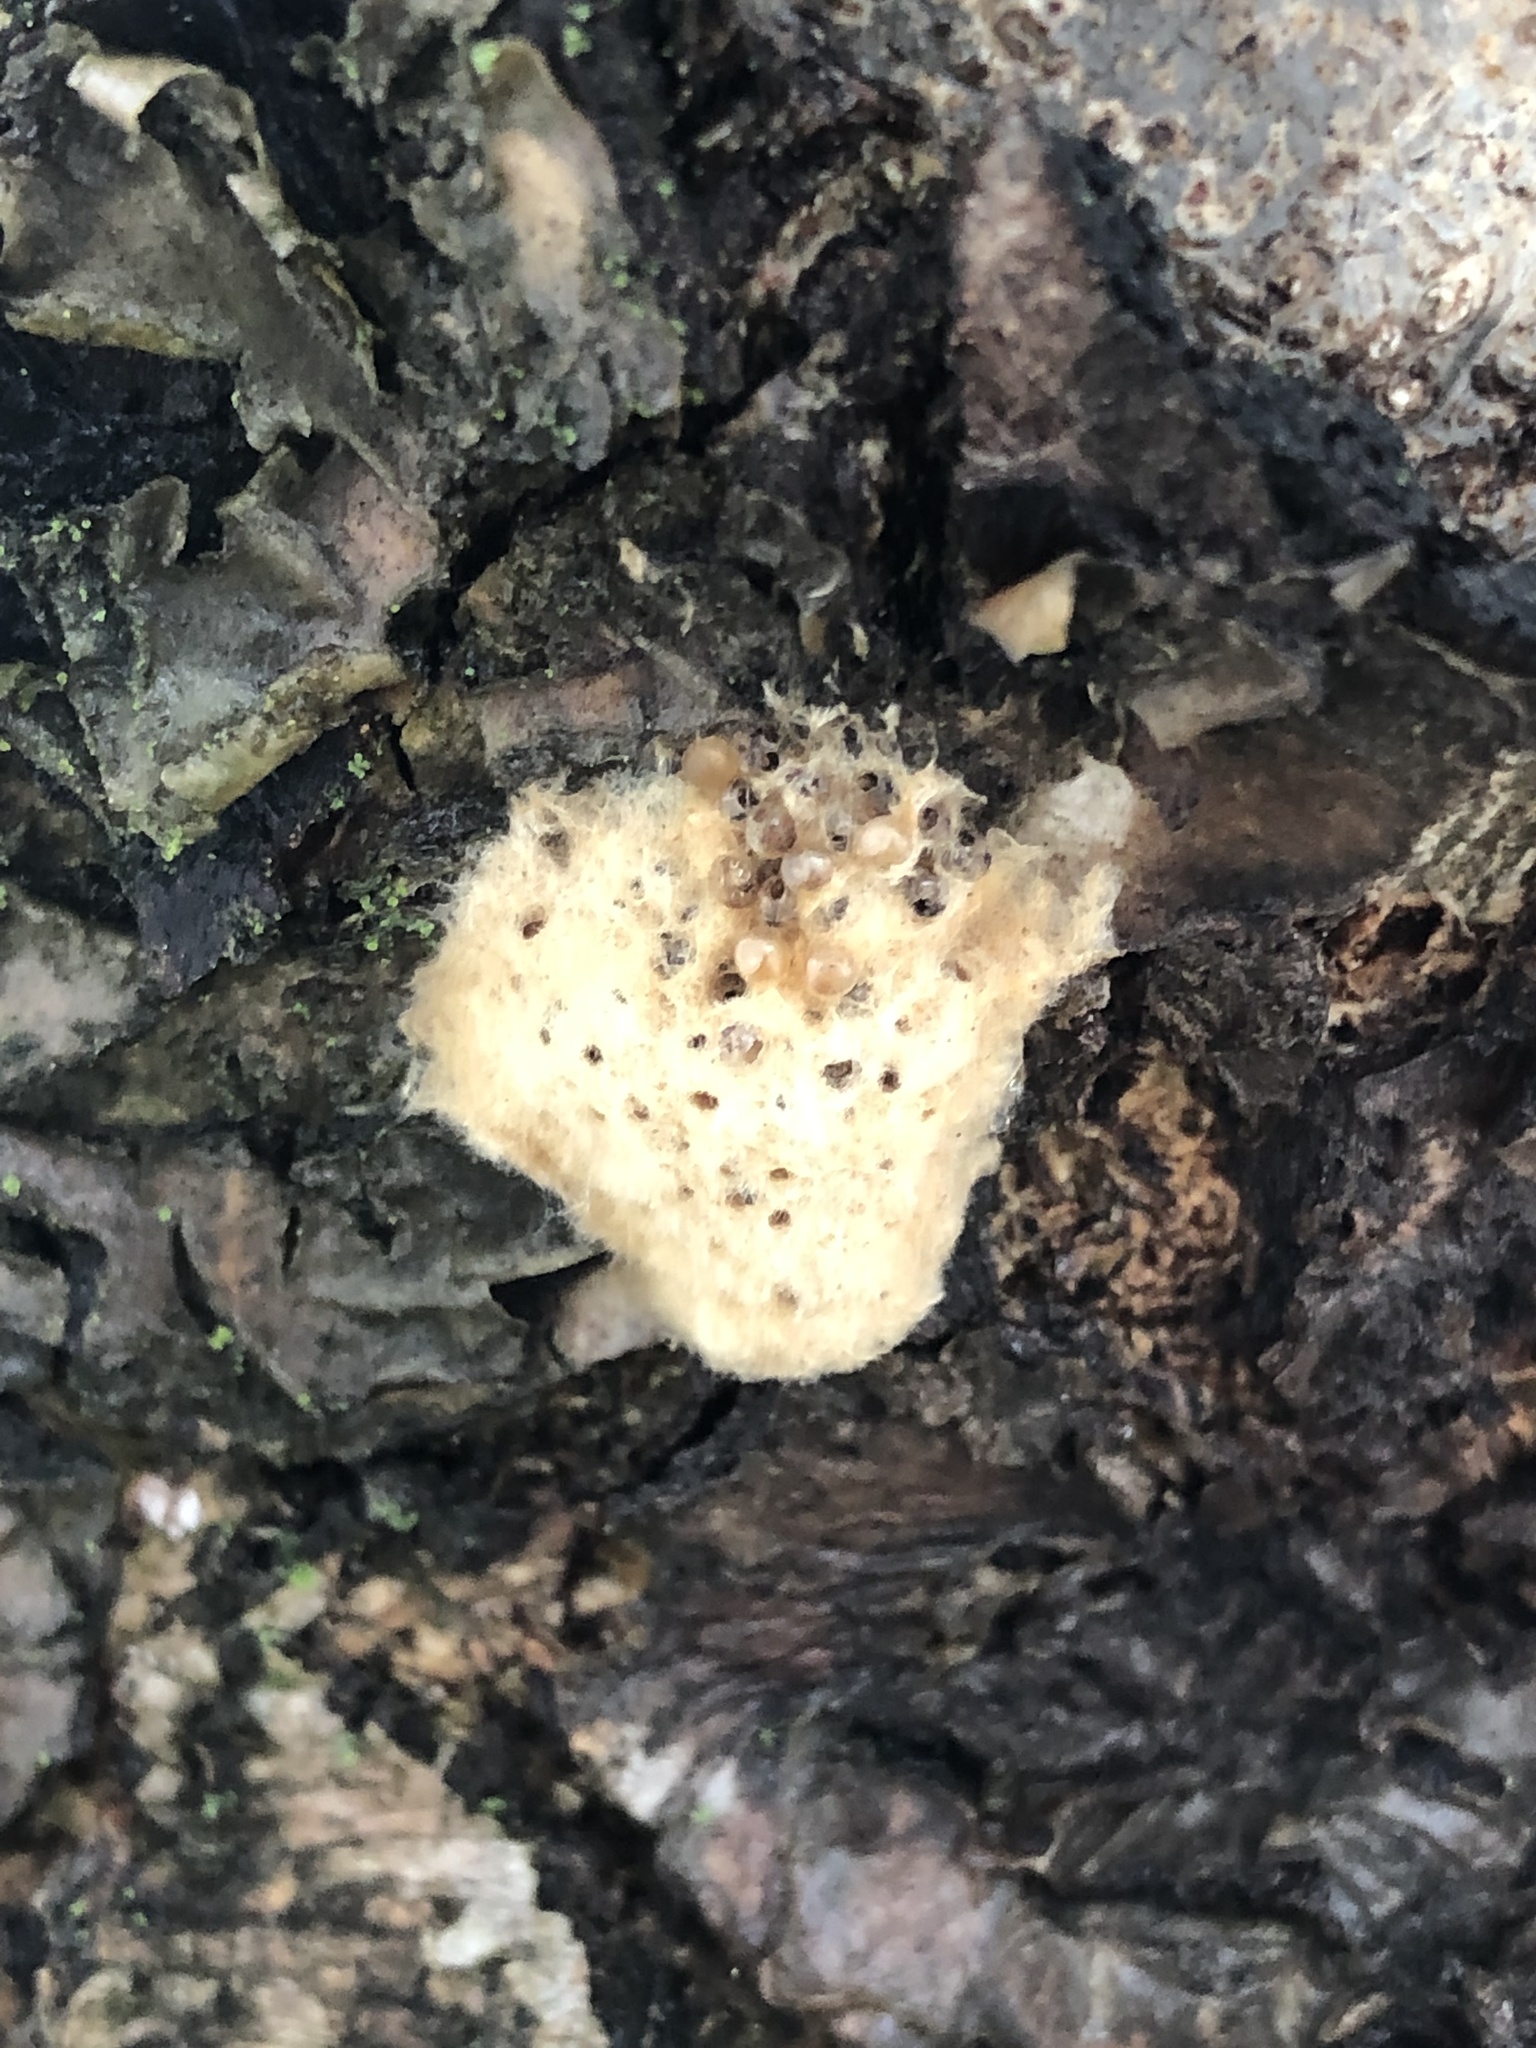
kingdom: Animalia
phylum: Arthropoda
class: Insecta
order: Lepidoptera
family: Erebidae
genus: Lymantria
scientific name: Lymantria dispar
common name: Gypsy moth
